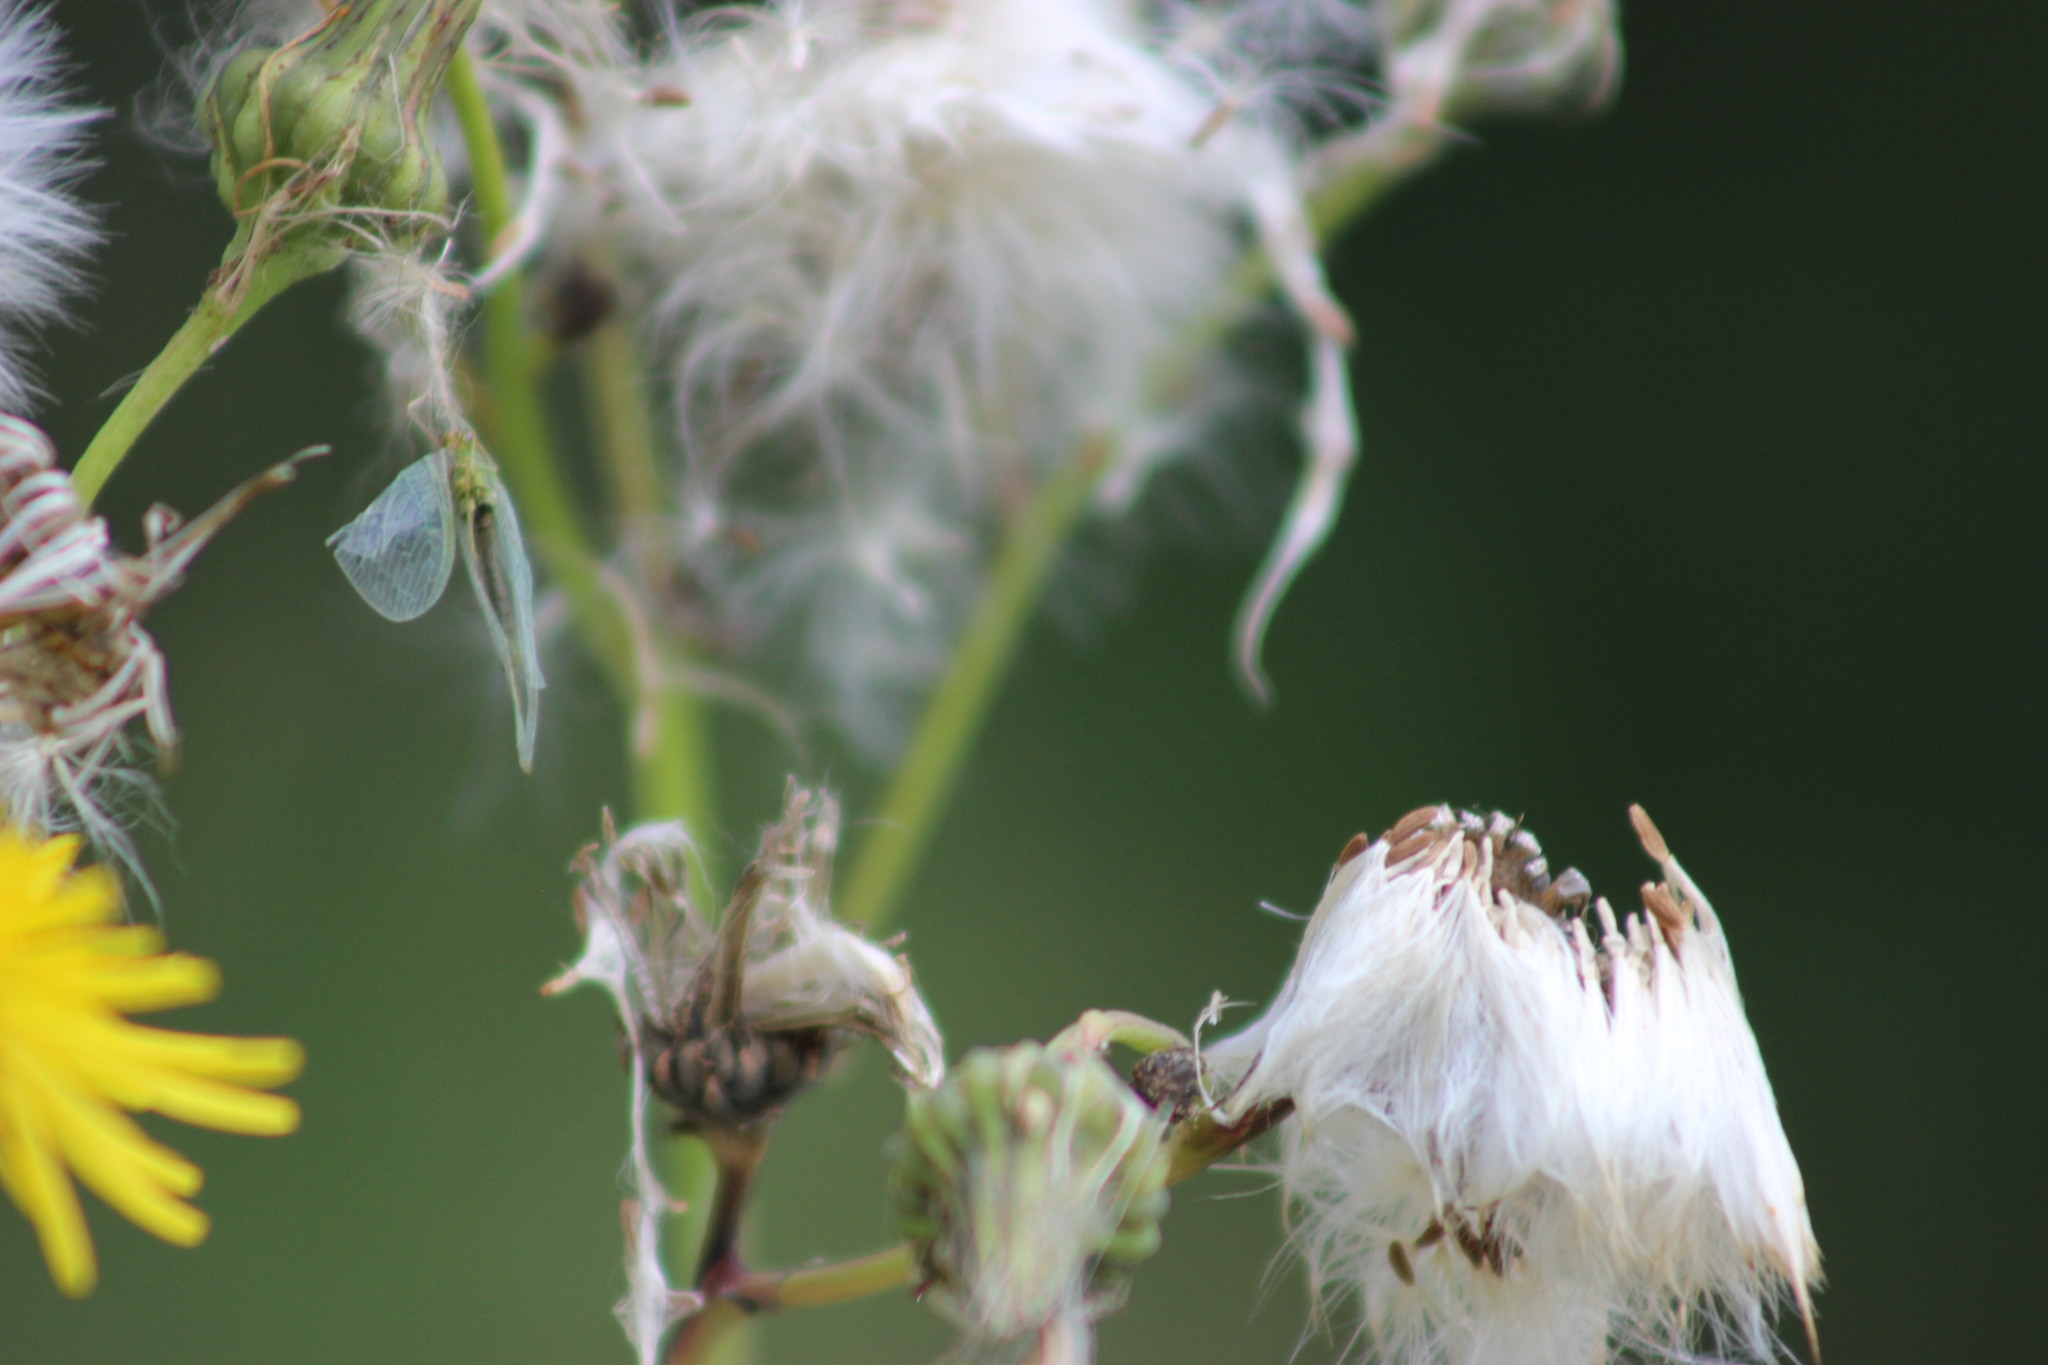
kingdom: Plantae
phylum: Tracheophyta
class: Magnoliopsida
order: Asterales
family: Asteraceae
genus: Sonchus
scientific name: Sonchus arvensis
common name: Perennial sow-thistle
